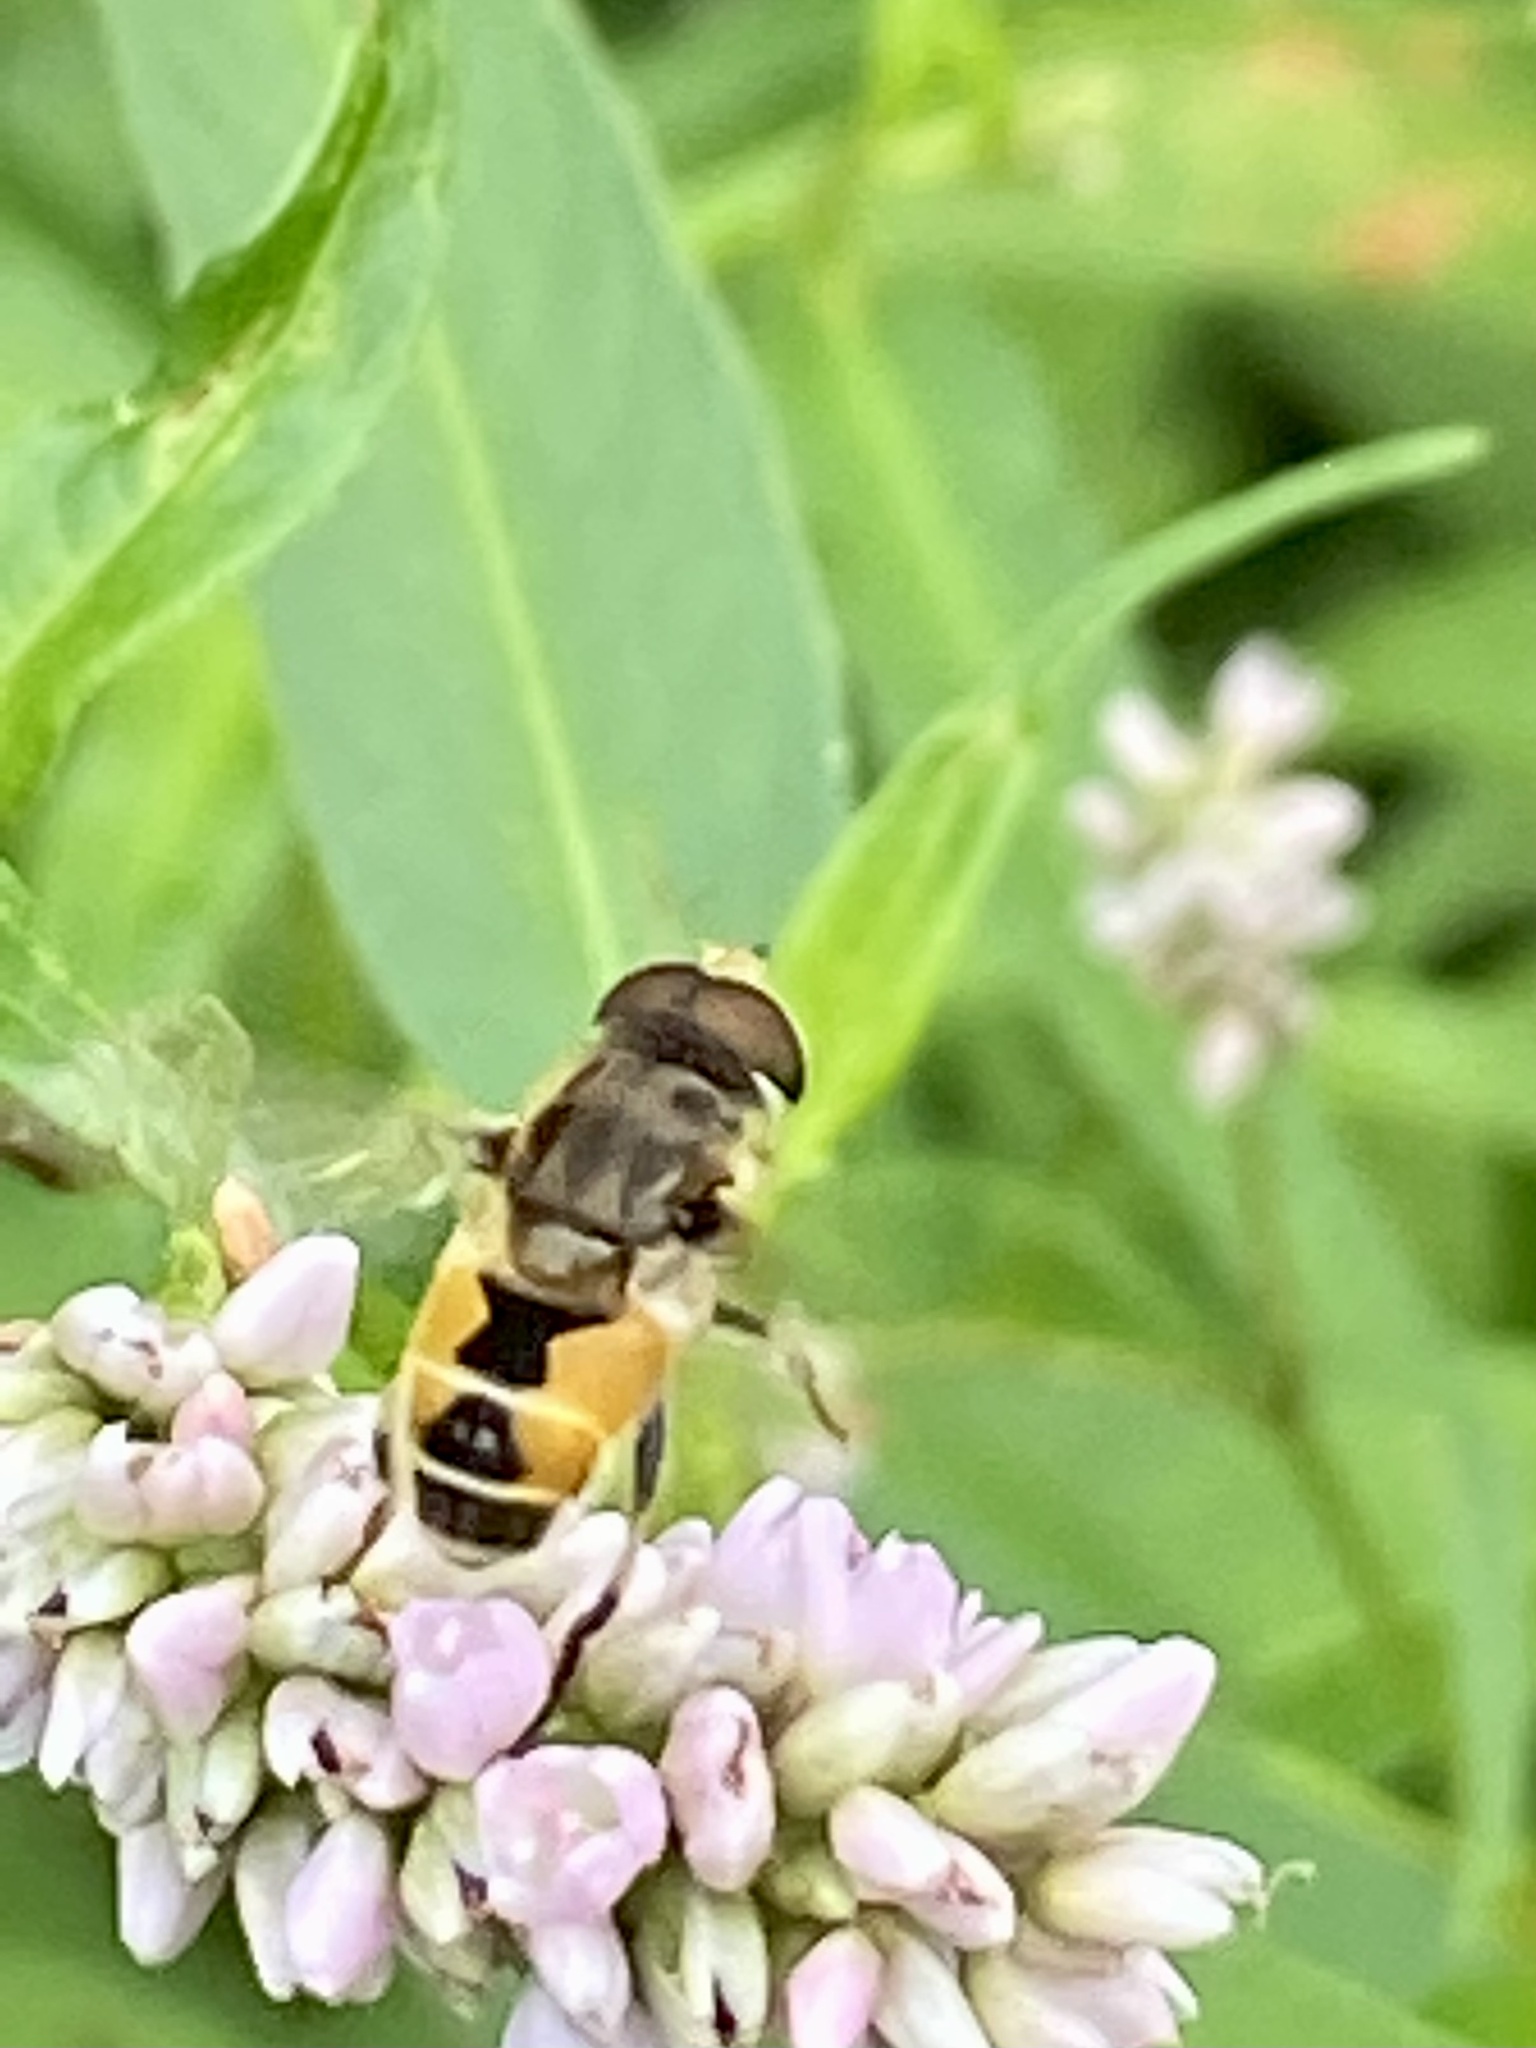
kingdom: Animalia
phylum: Arthropoda
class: Insecta
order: Diptera
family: Syrphidae
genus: Eristalis
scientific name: Eristalis arbustorum
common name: Hover fly
